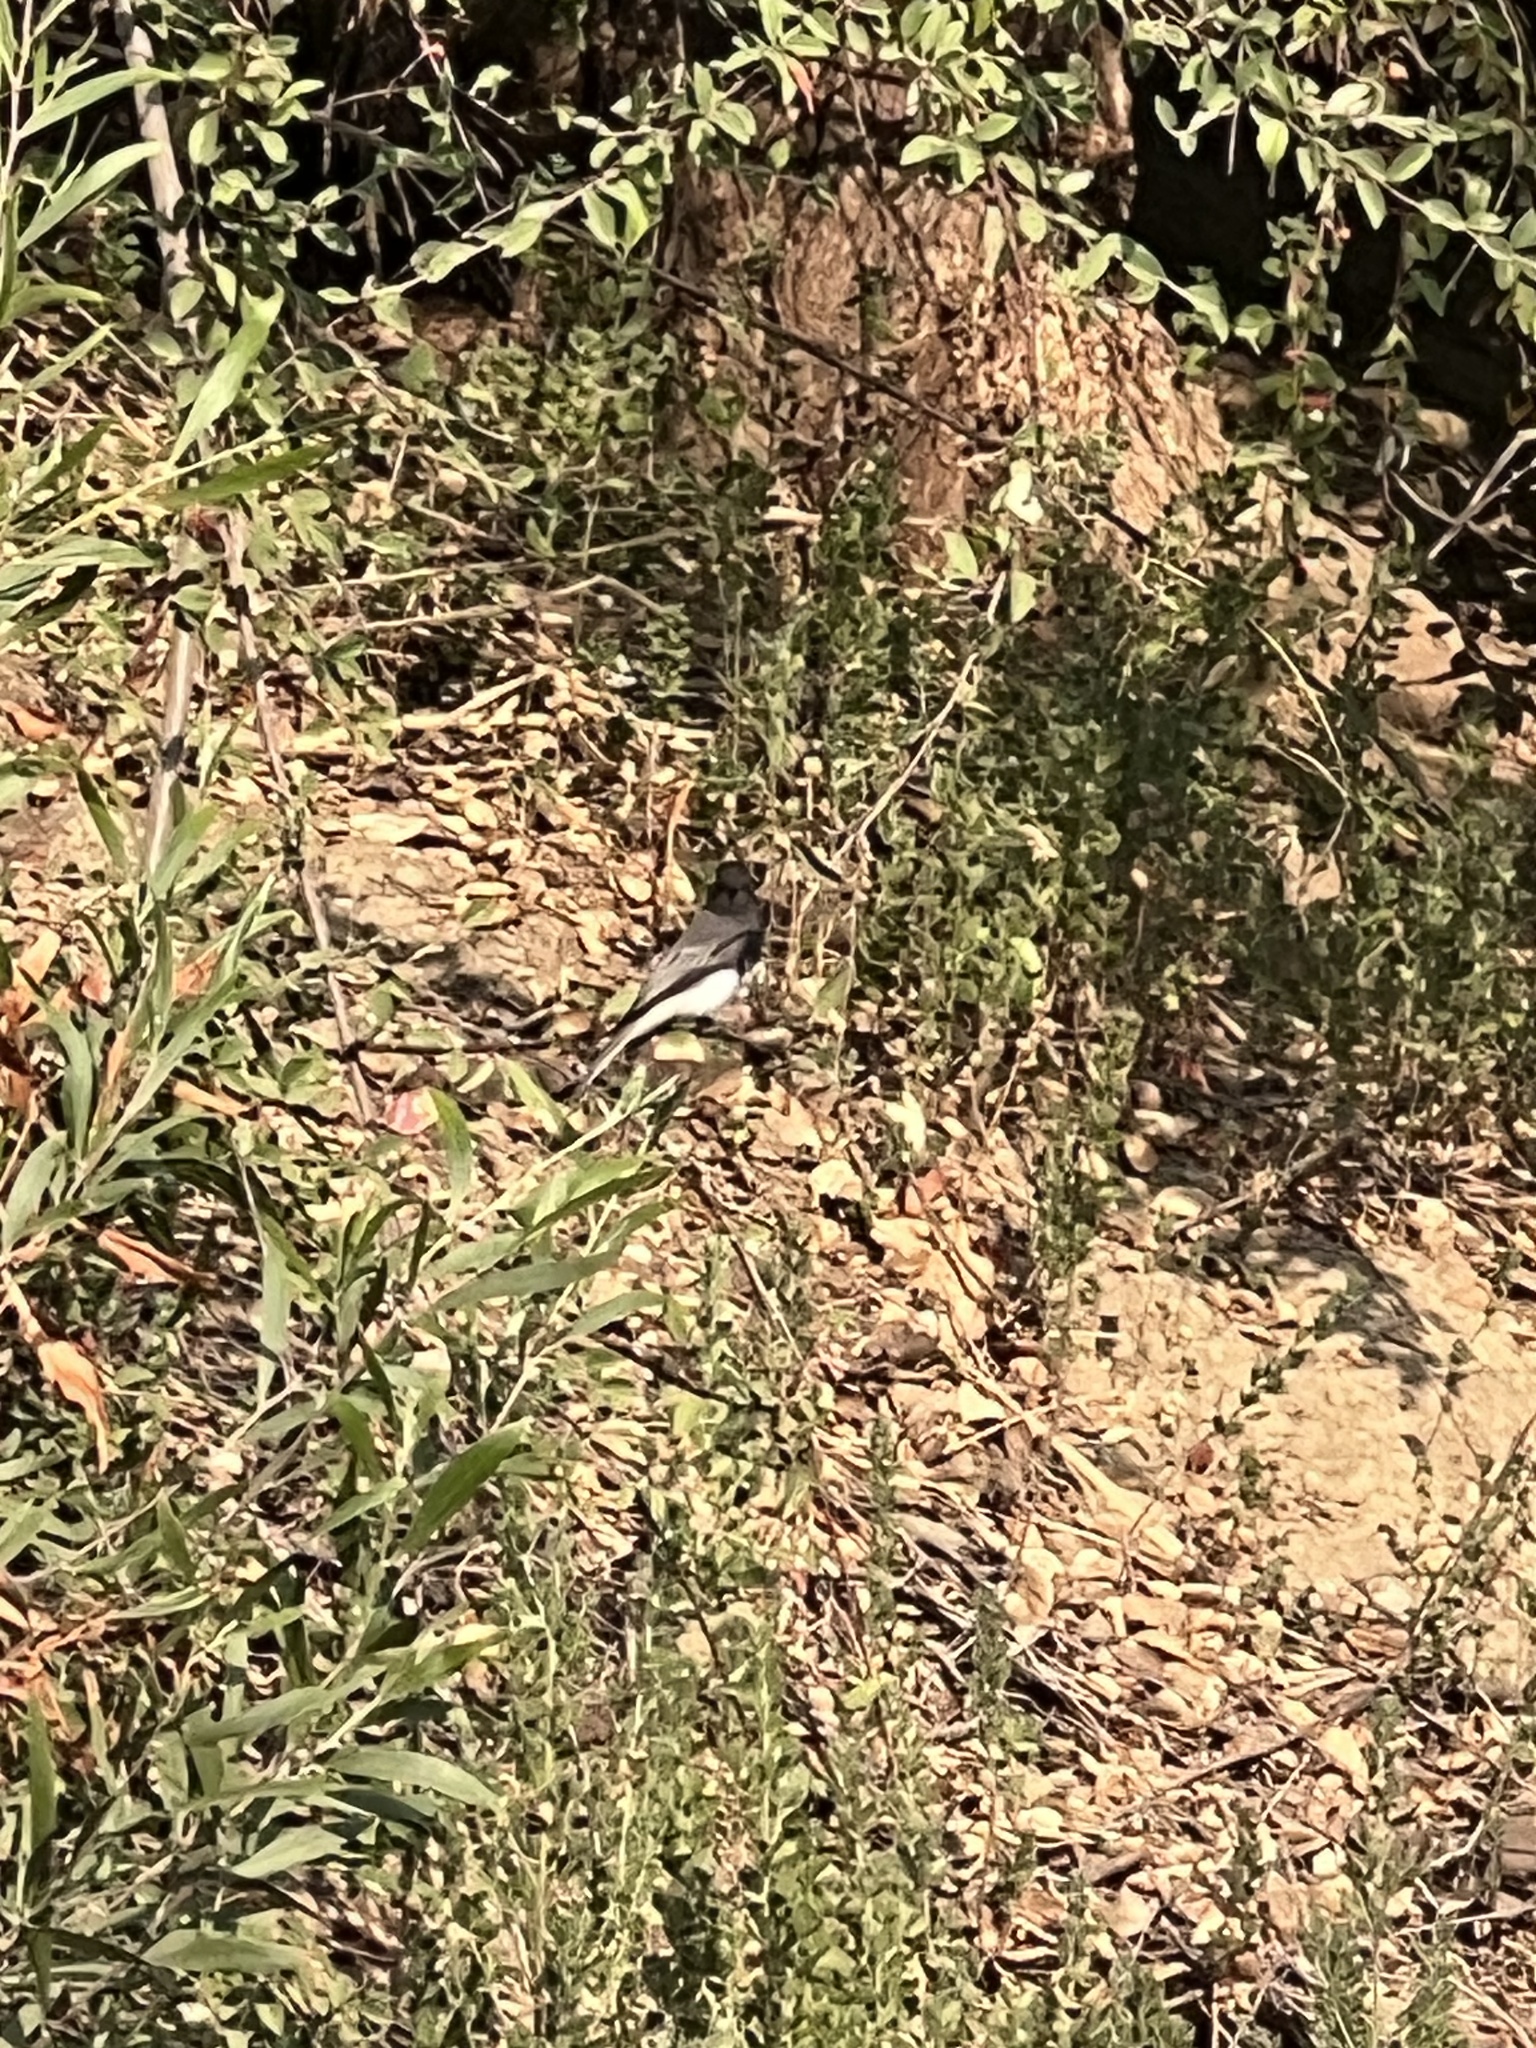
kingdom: Animalia
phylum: Chordata
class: Aves
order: Passeriformes
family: Tyrannidae
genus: Sayornis
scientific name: Sayornis nigricans
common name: Black phoebe
